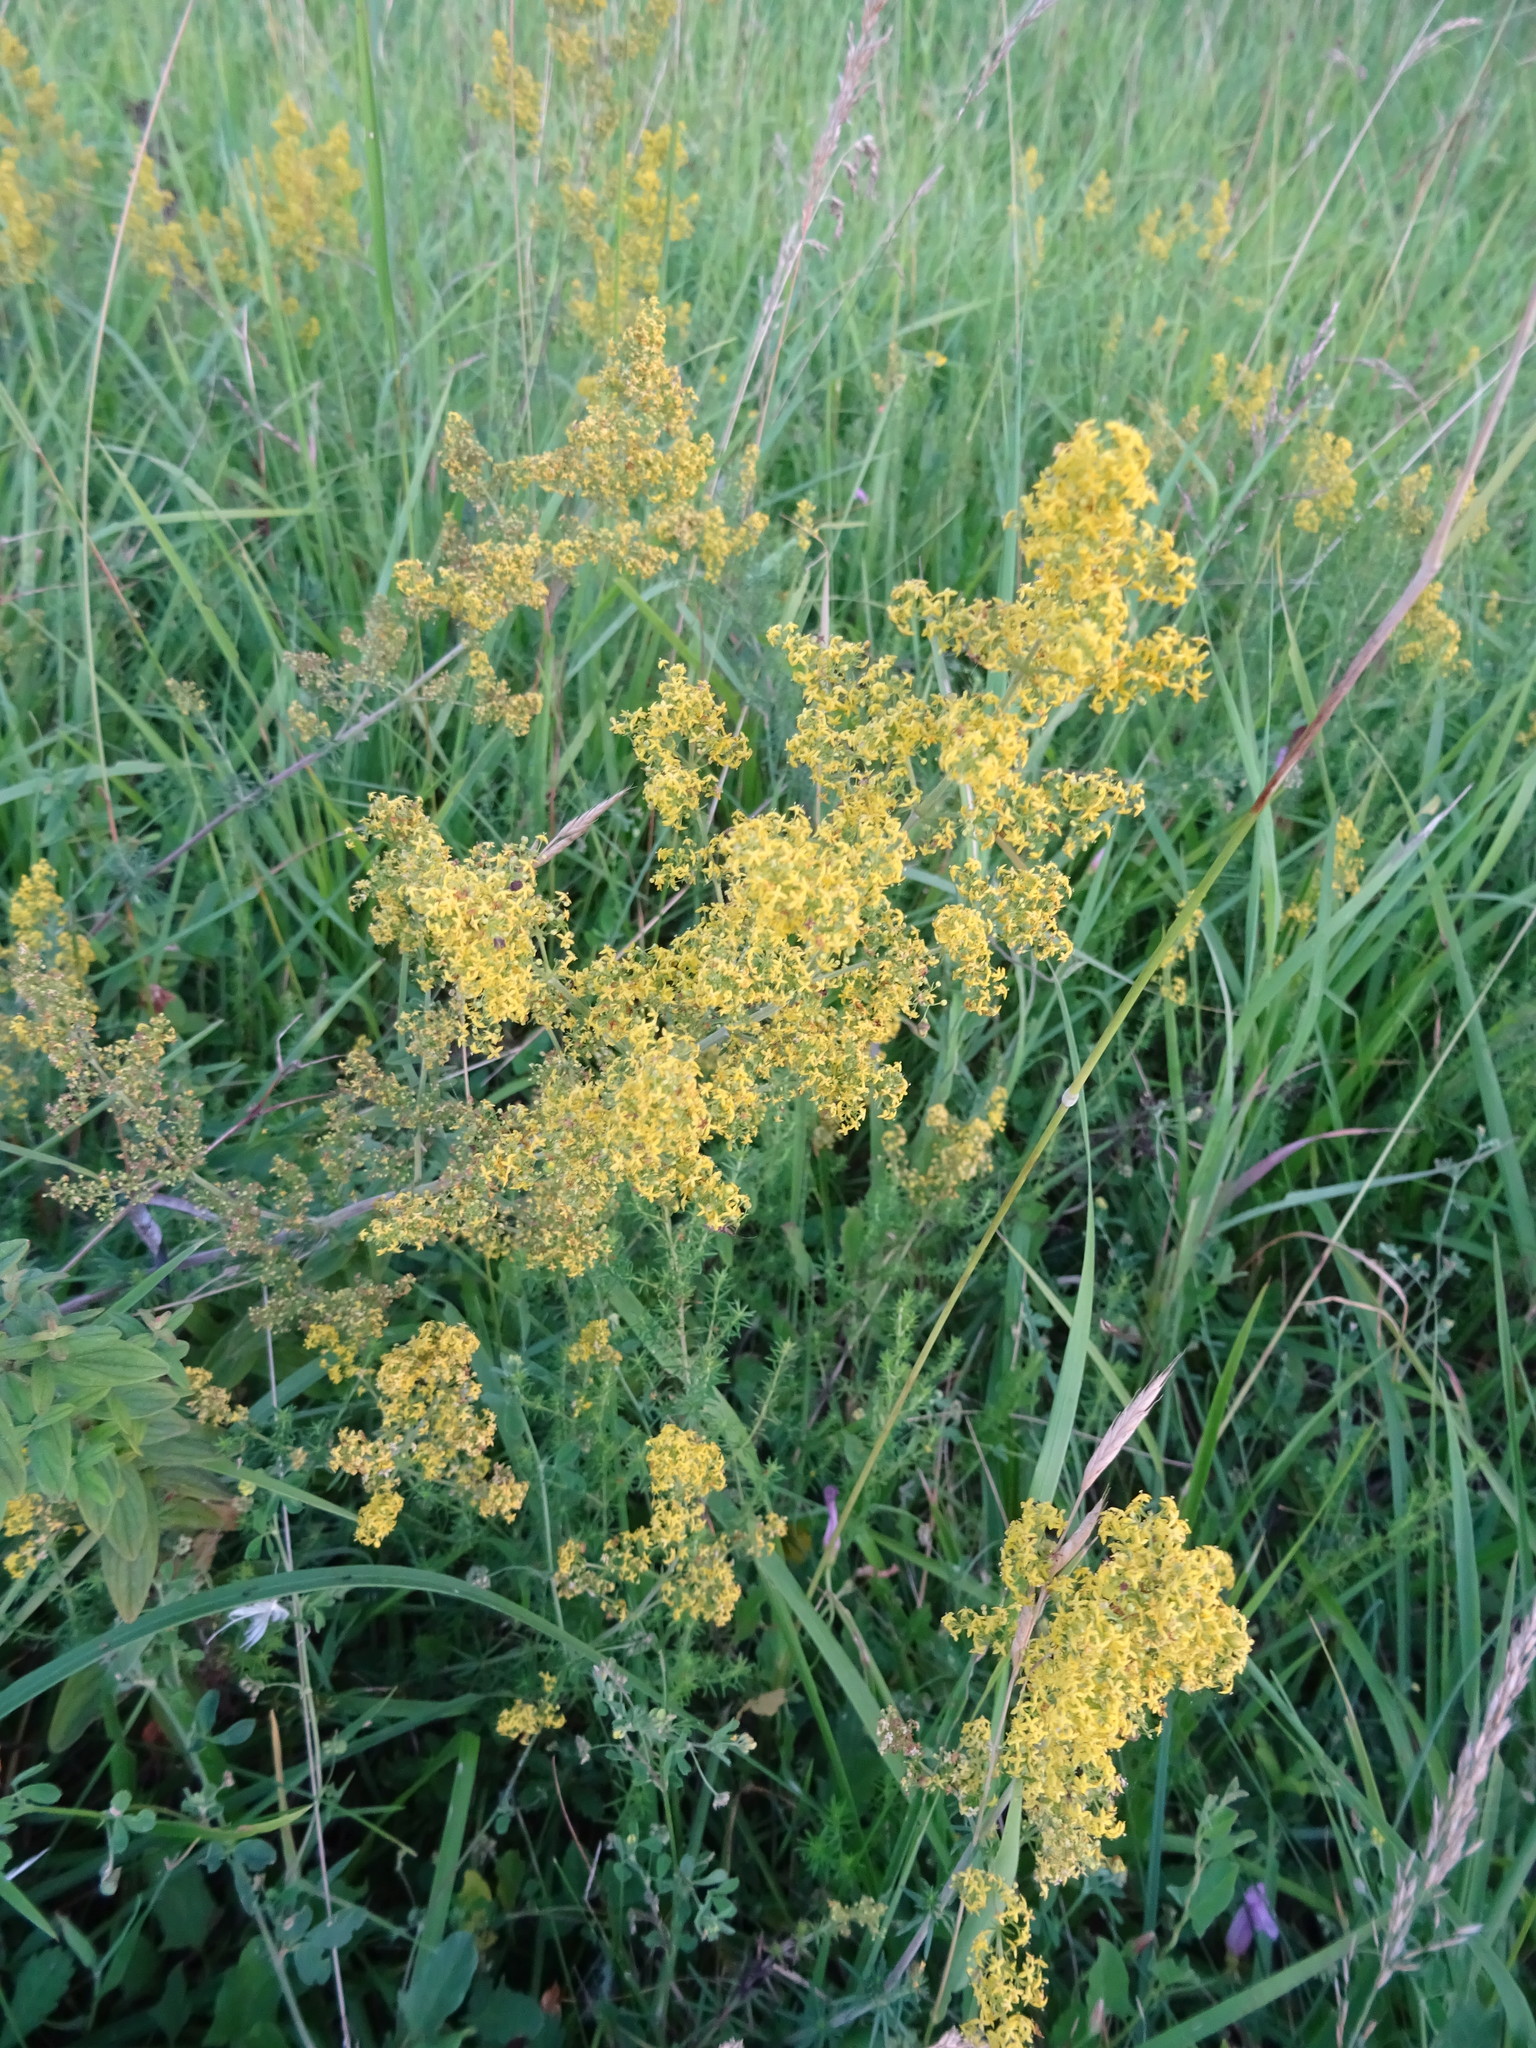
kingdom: Plantae
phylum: Tracheophyta
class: Magnoliopsida
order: Gentianales
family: Rubiaceae
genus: Galium
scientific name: Galium verum
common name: Lady's bedstraw
